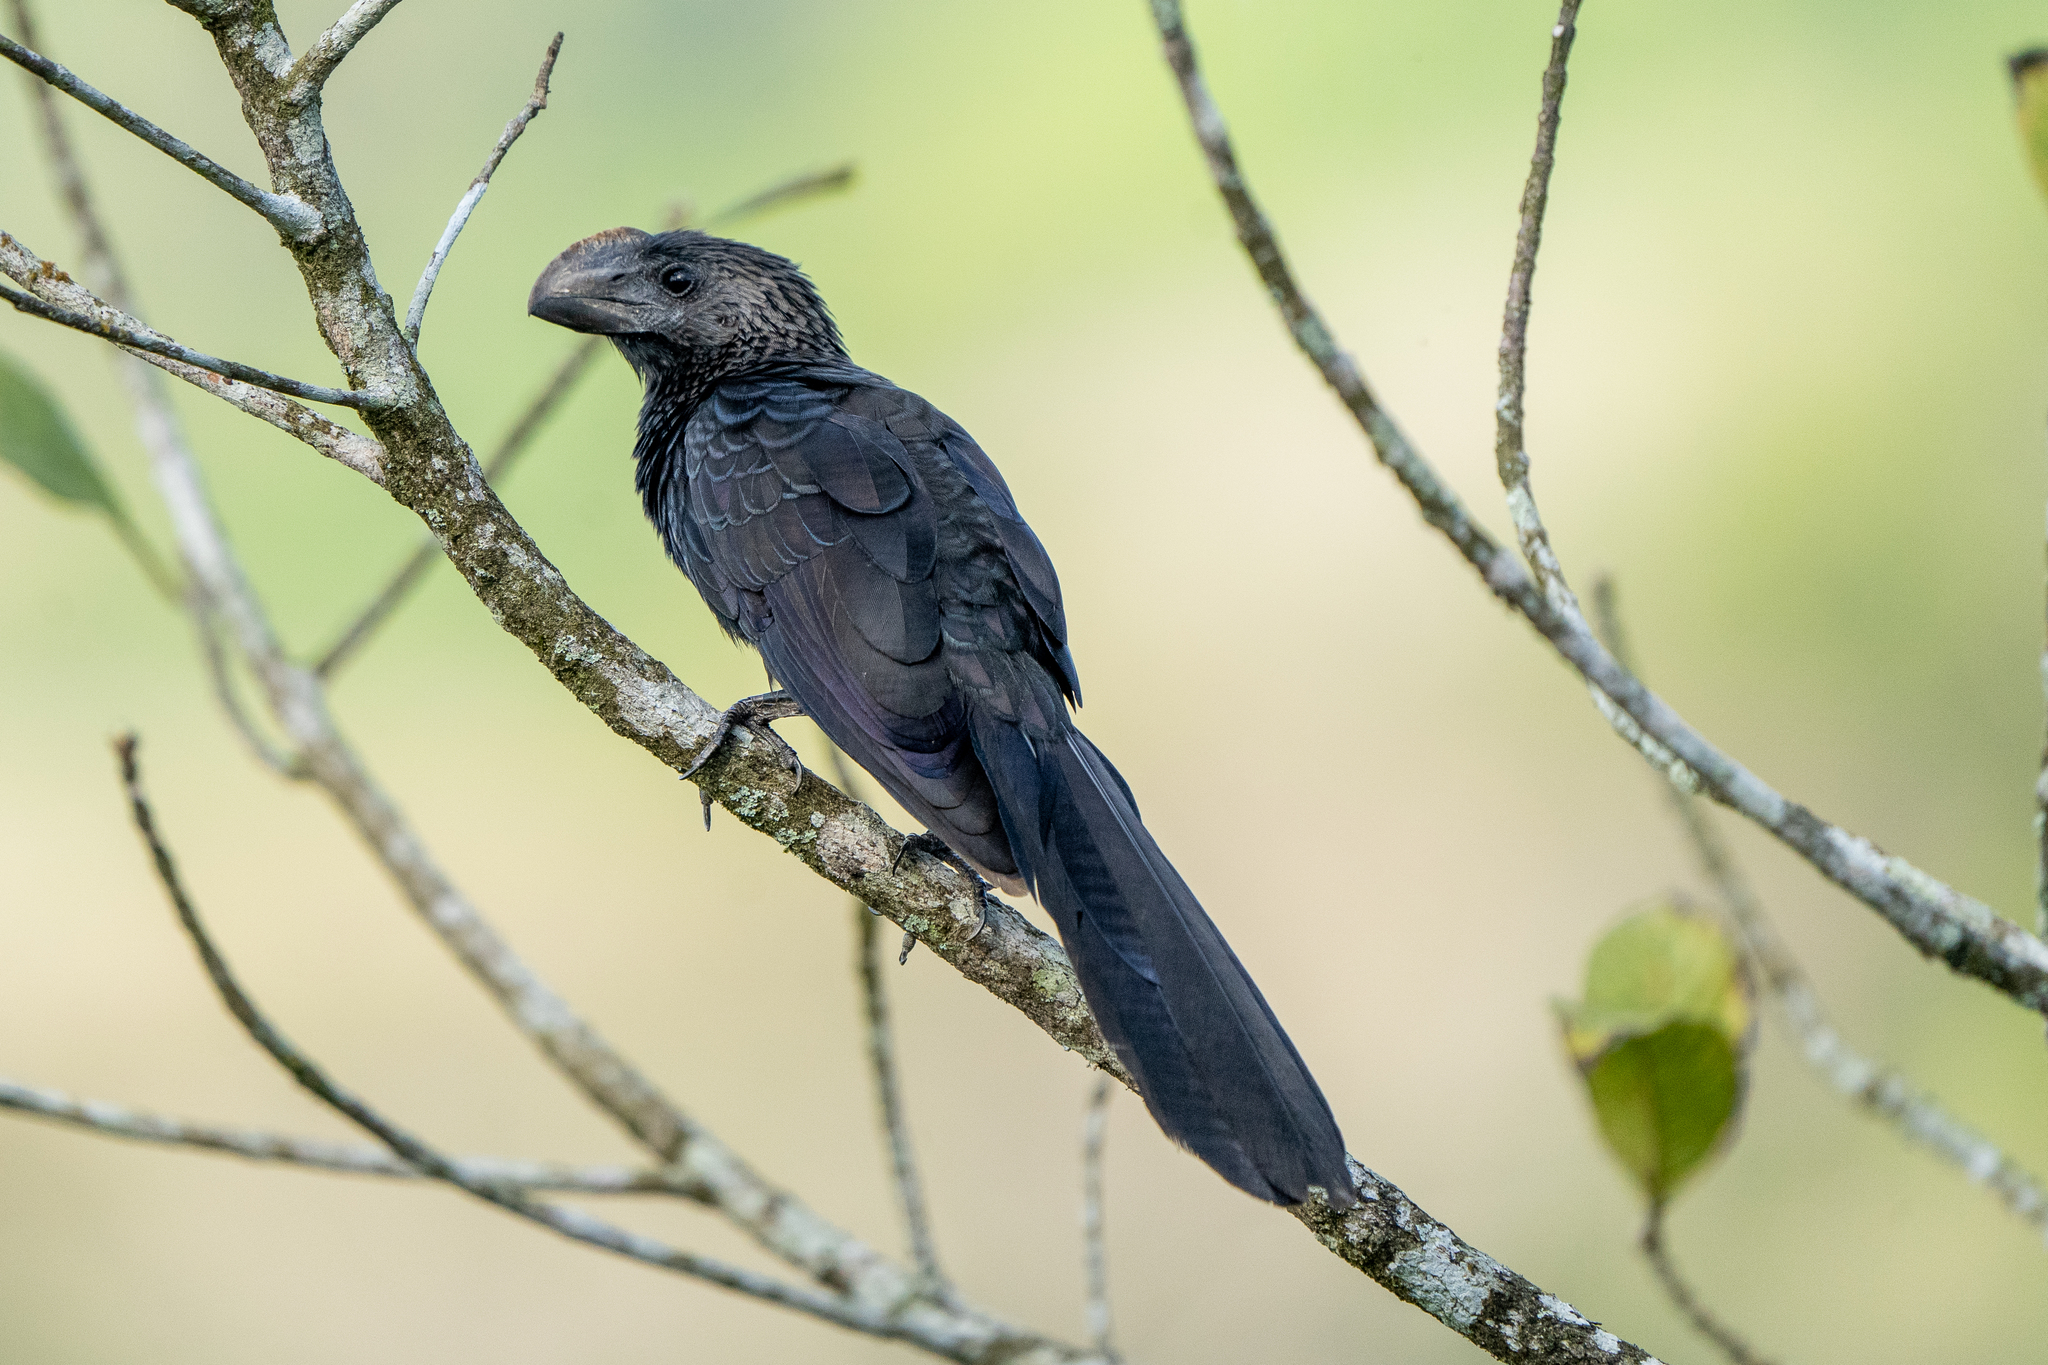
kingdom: Animalia
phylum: Chordata
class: Aves
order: Cuculiformes
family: Cuculidae
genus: Crotophaga
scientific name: Crotophaga ani
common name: Smooth-billed ani
